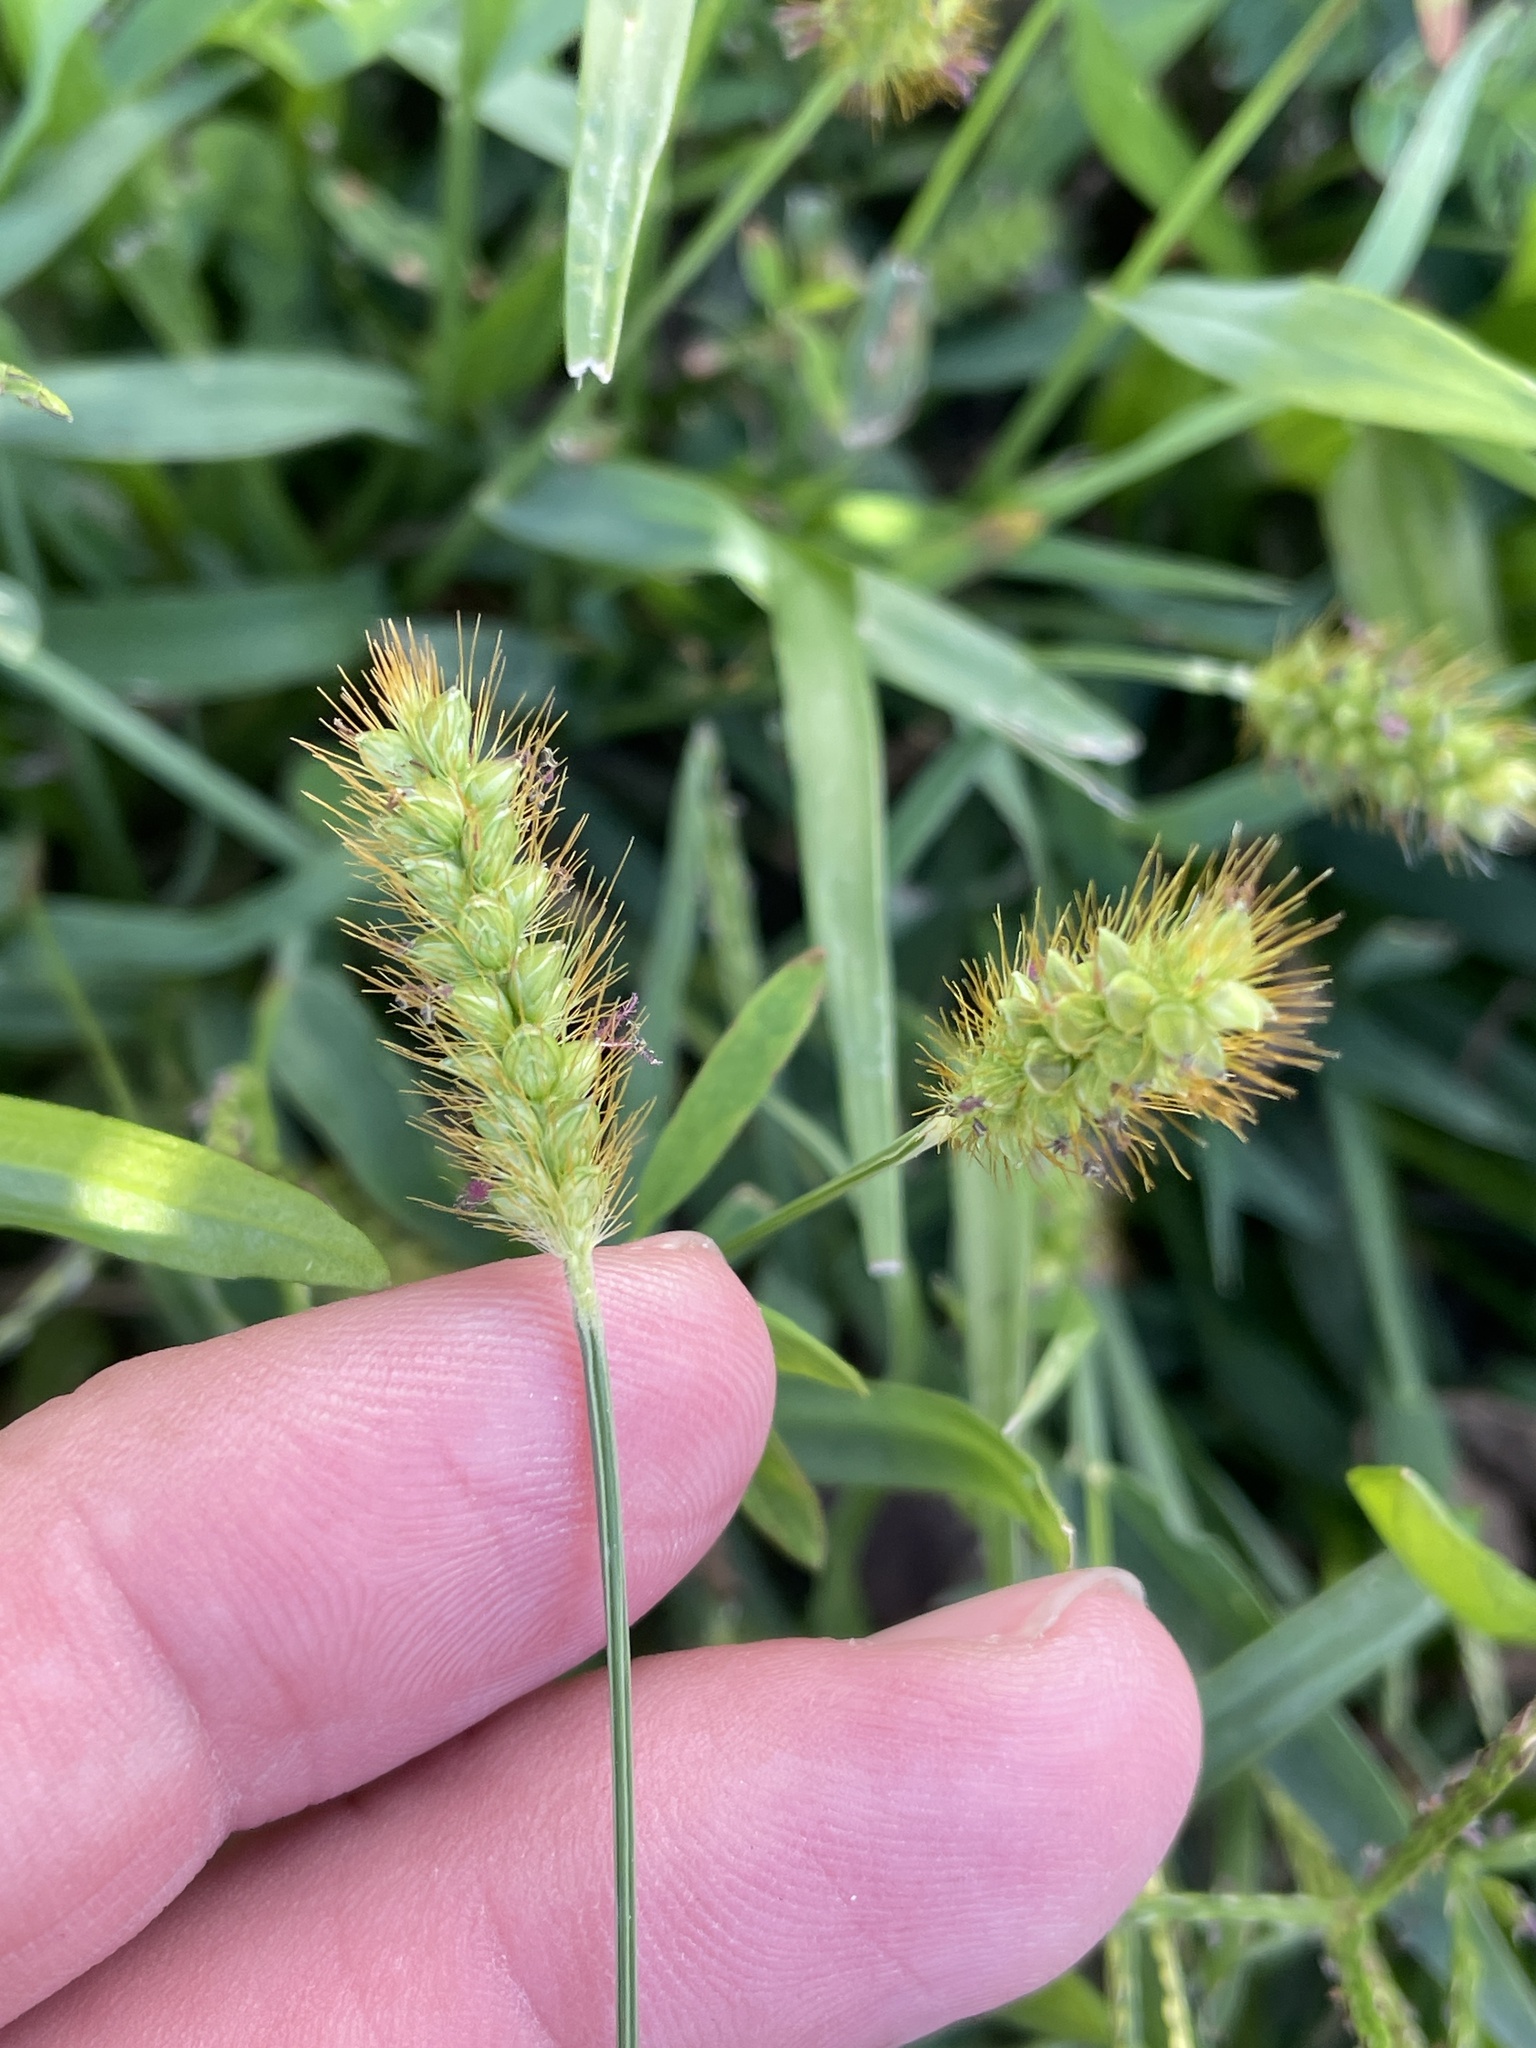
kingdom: Plantae
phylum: Tracheophyta
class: Liliopsida
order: Poales
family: Poaceae
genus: Setaria
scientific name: Setaria pumila
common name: Yellow bristle-grass
